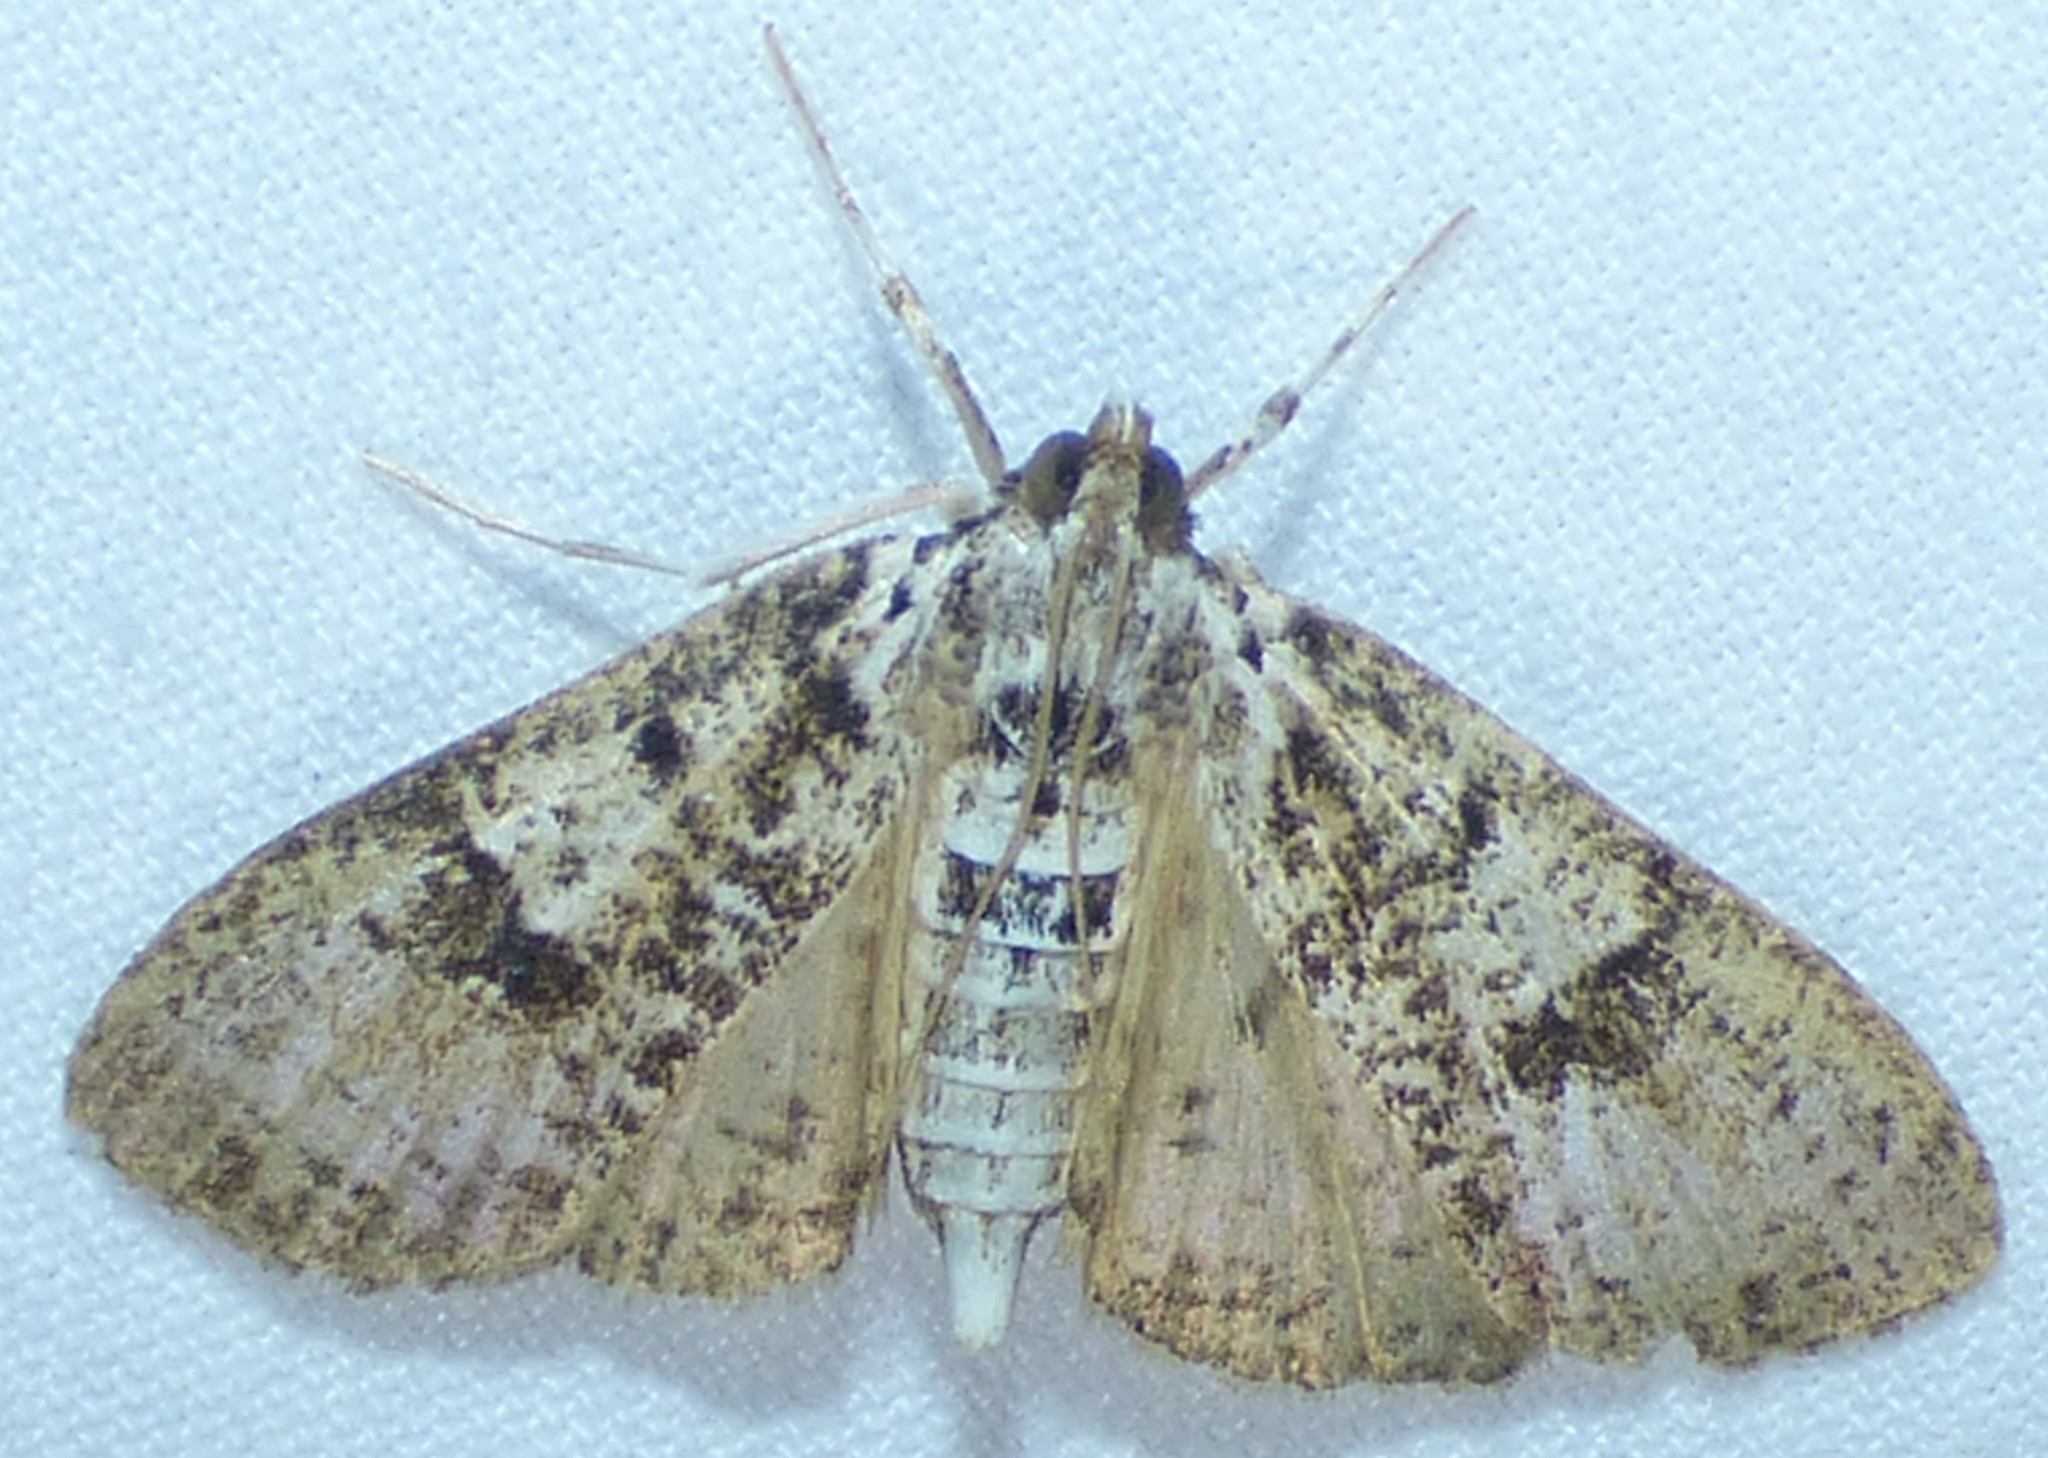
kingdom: Animalia
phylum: Arthropoda
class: Insecta
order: Lepidoptera
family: Crambidae
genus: Palpita
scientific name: Palpita magniferalis
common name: Splendid palpita moth
